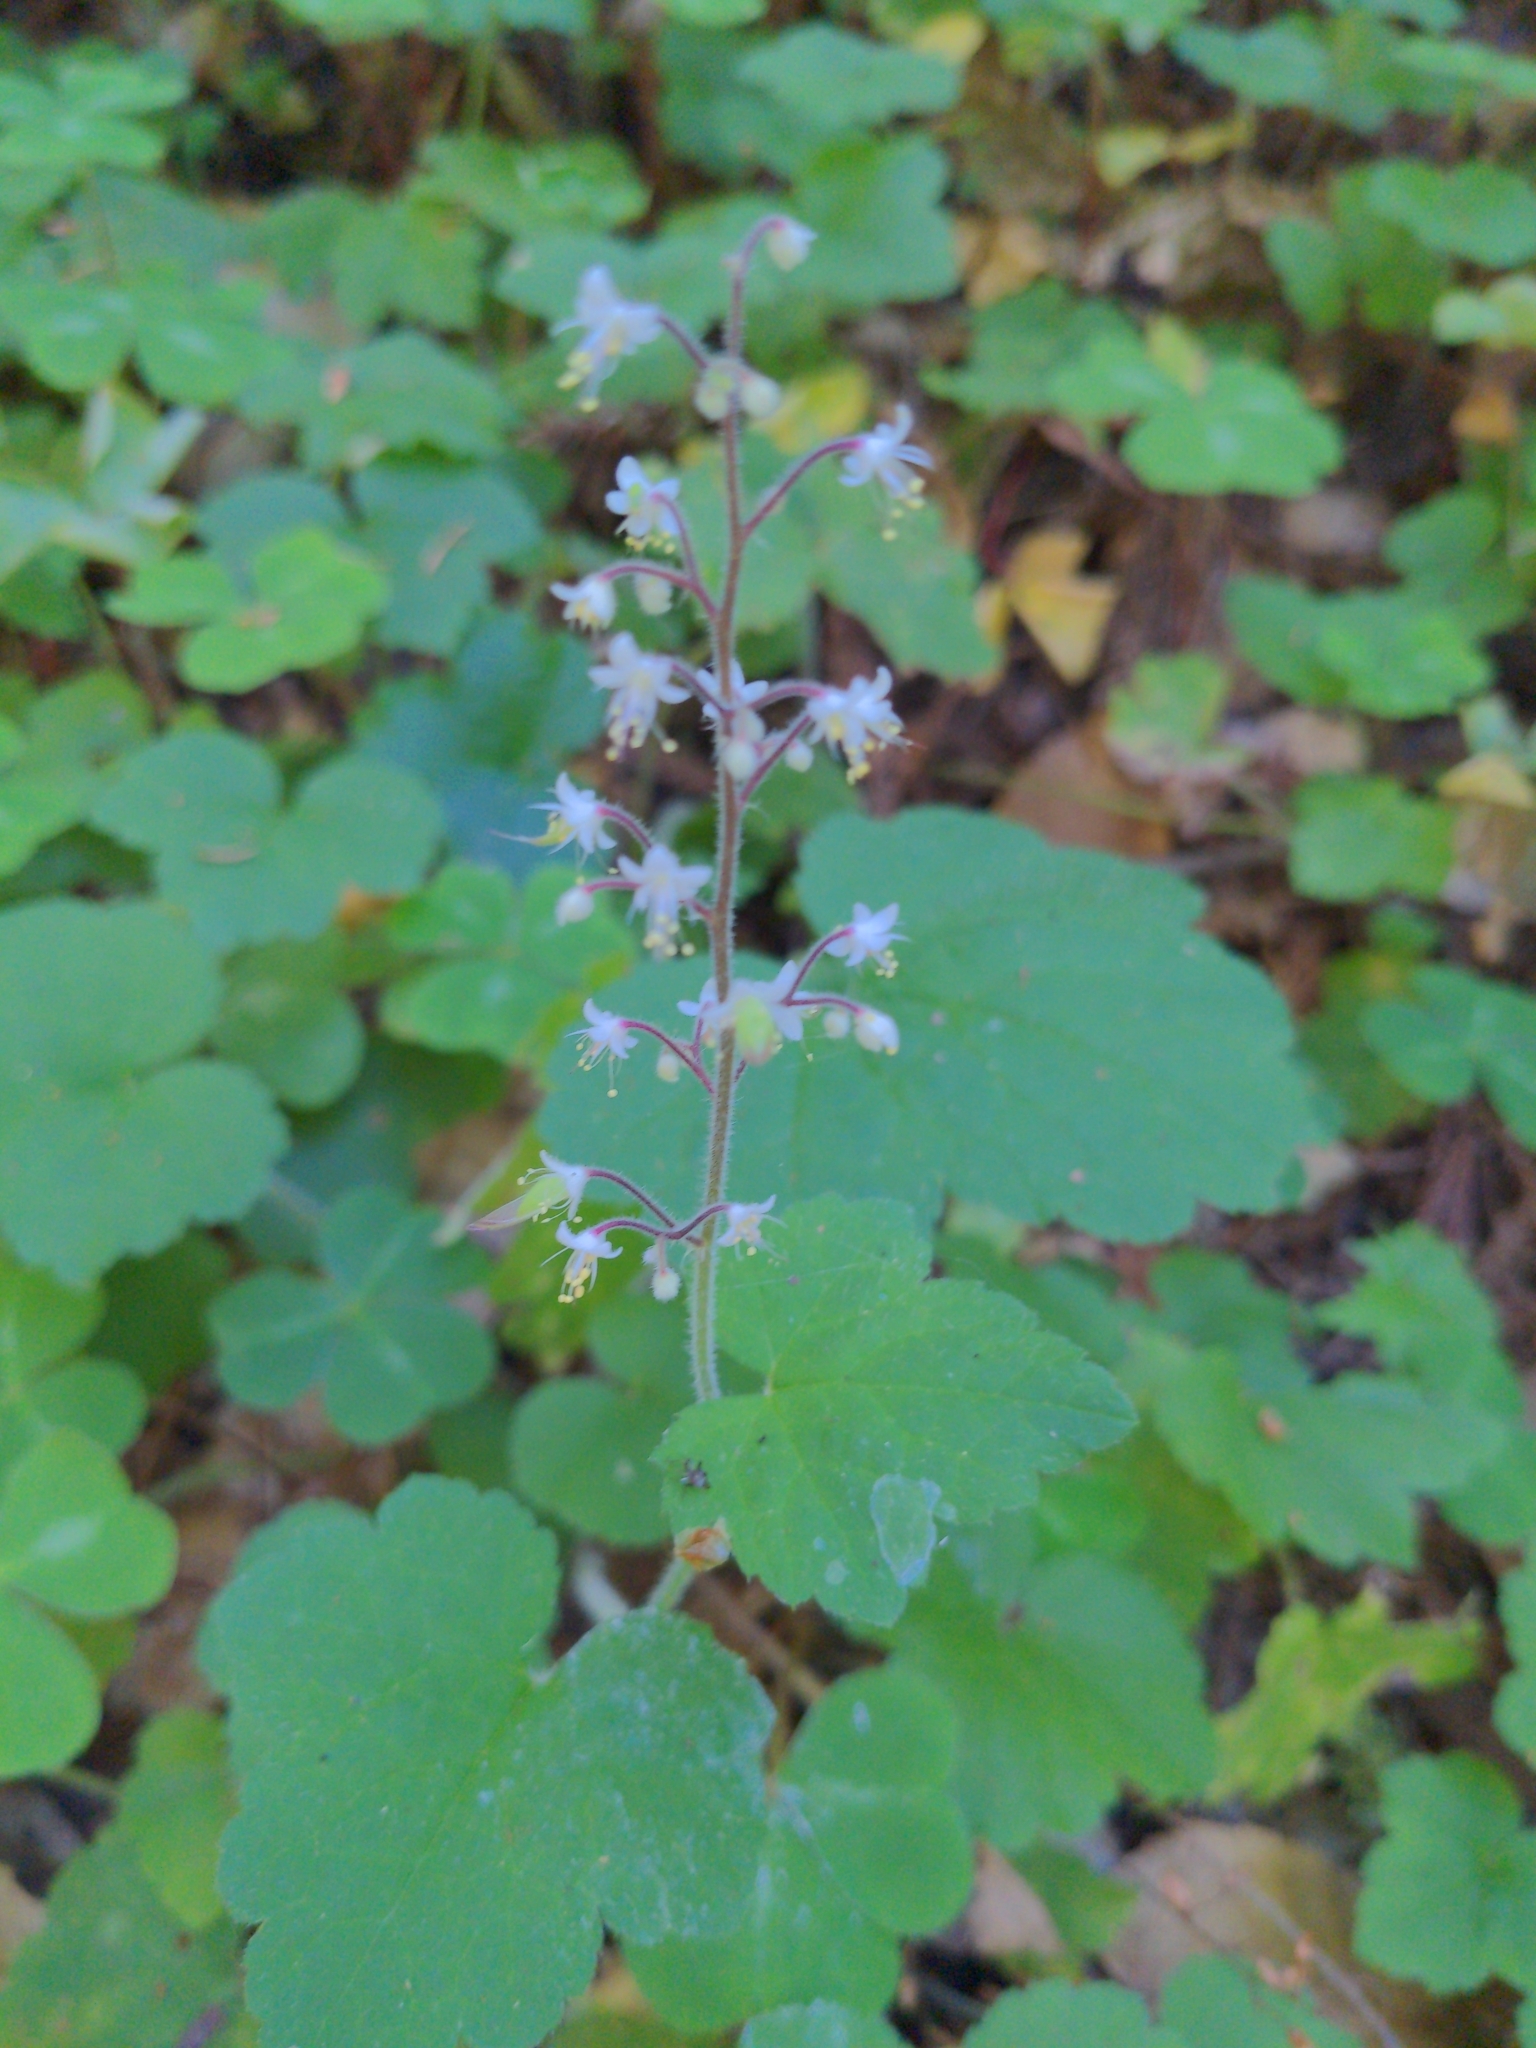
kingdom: Plantae
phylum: Tracheophyta
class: Magnoliopsida
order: Saxifragales
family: Saxifragaceae
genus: Tiarella
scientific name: Tiarella trifoliata
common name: Sugar-scoop
